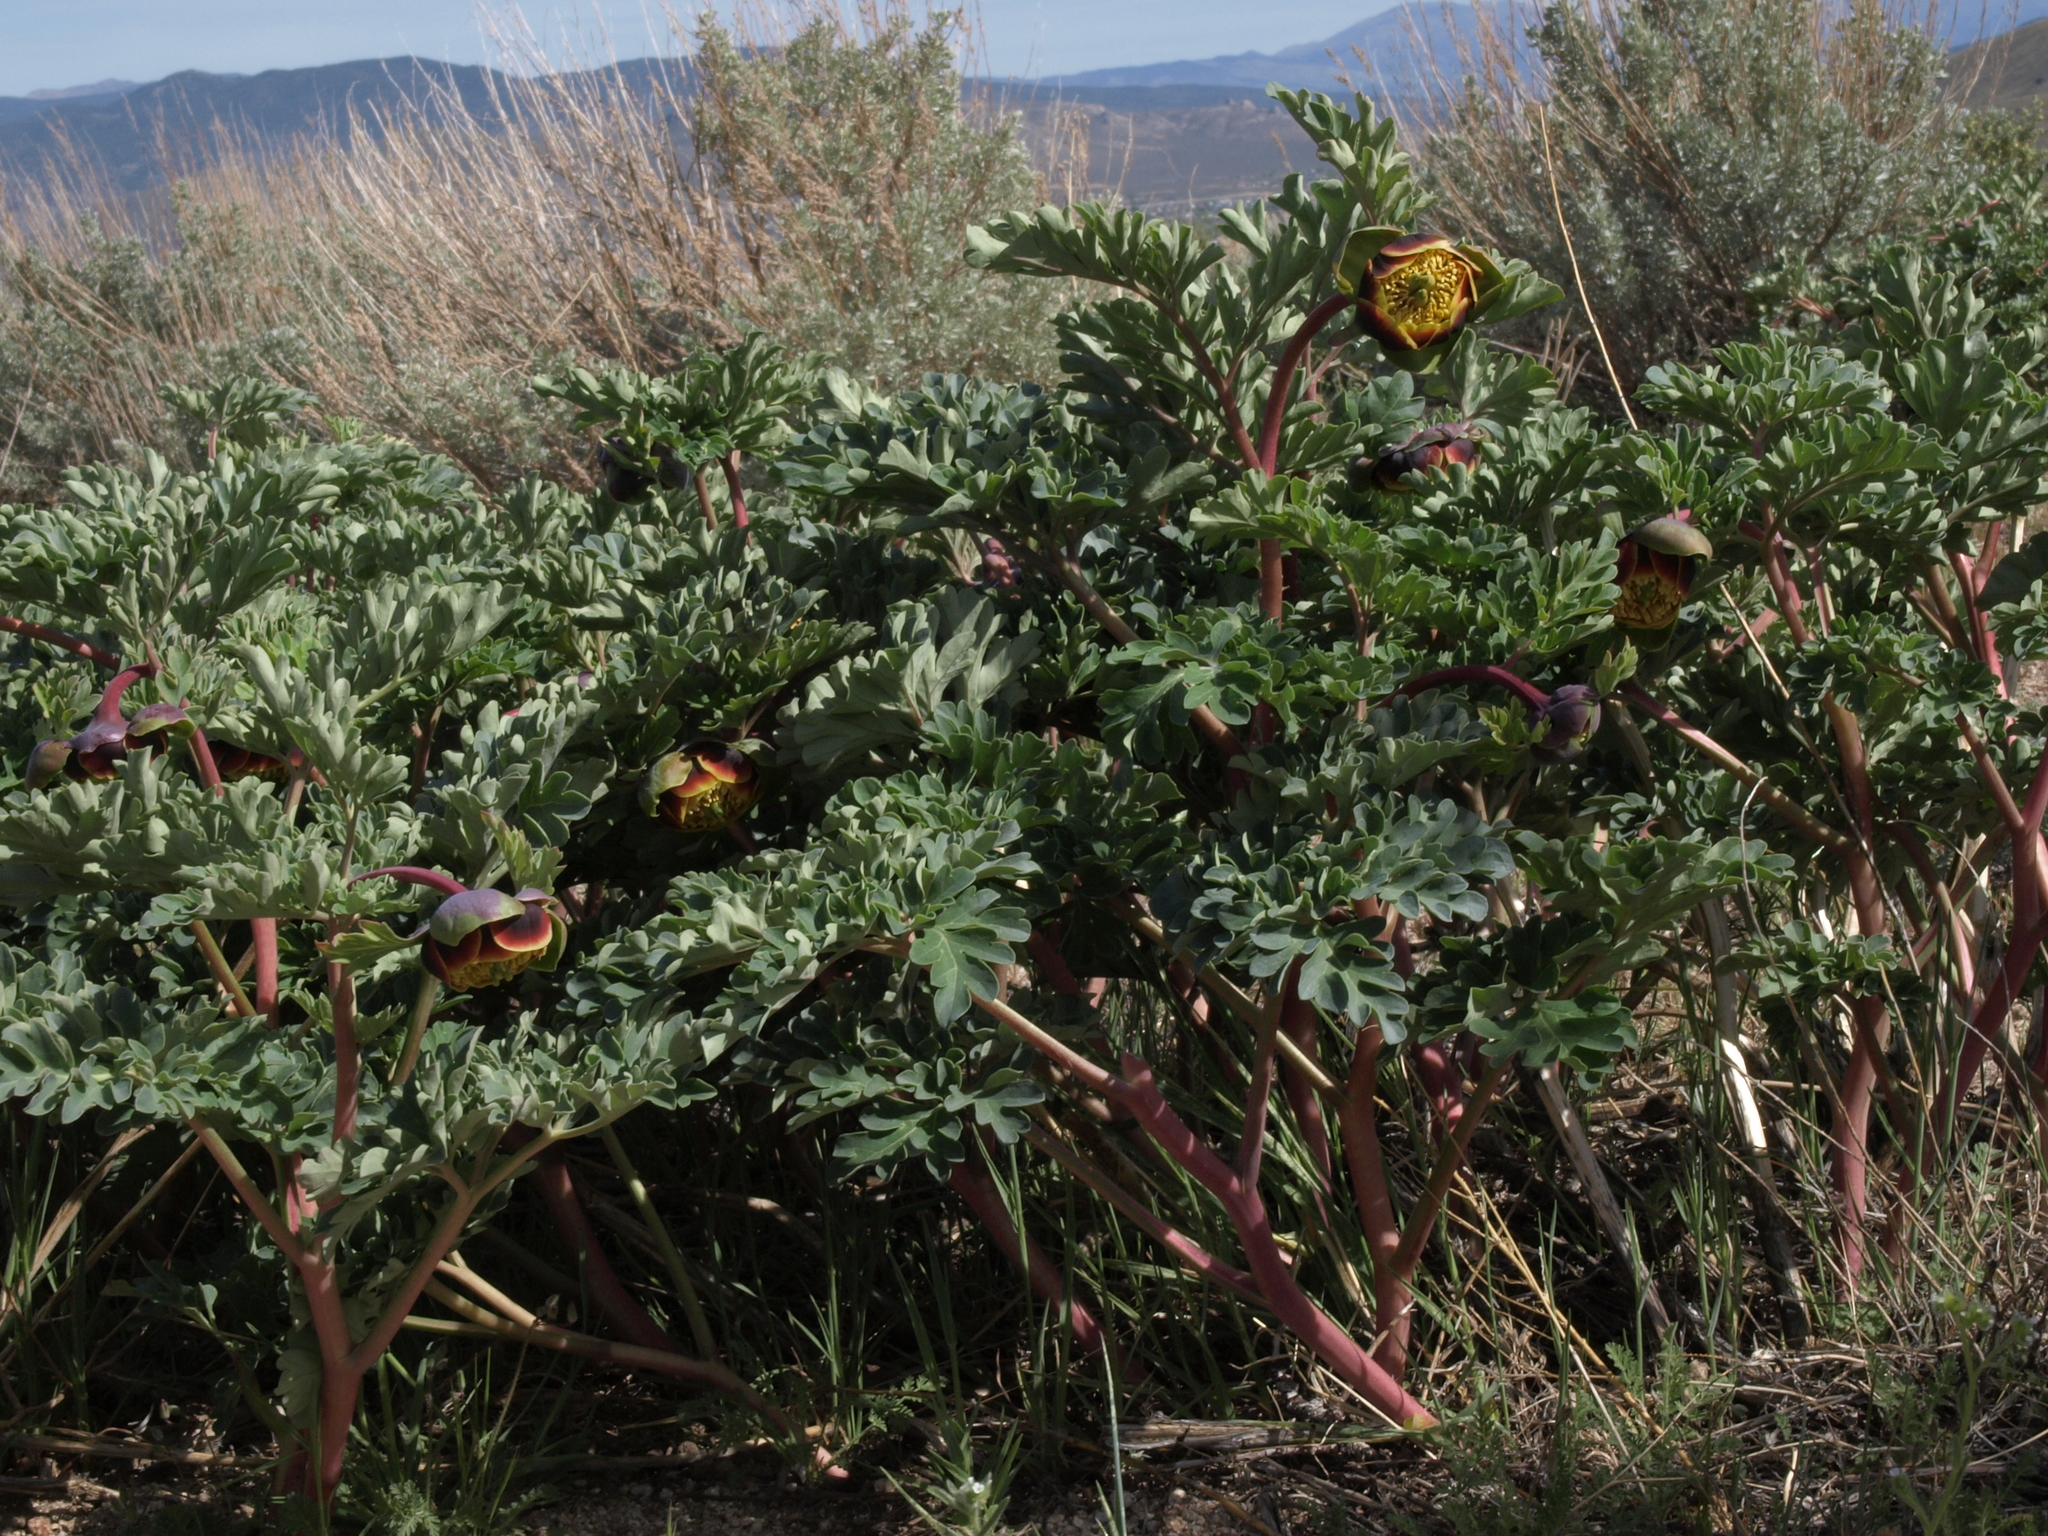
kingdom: Plantae
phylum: Tracheophyta
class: Magnoliopsida
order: Saxifragales
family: Paeoniaceae
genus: Paeonia
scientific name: Paeonia brownii
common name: Brown's peony
